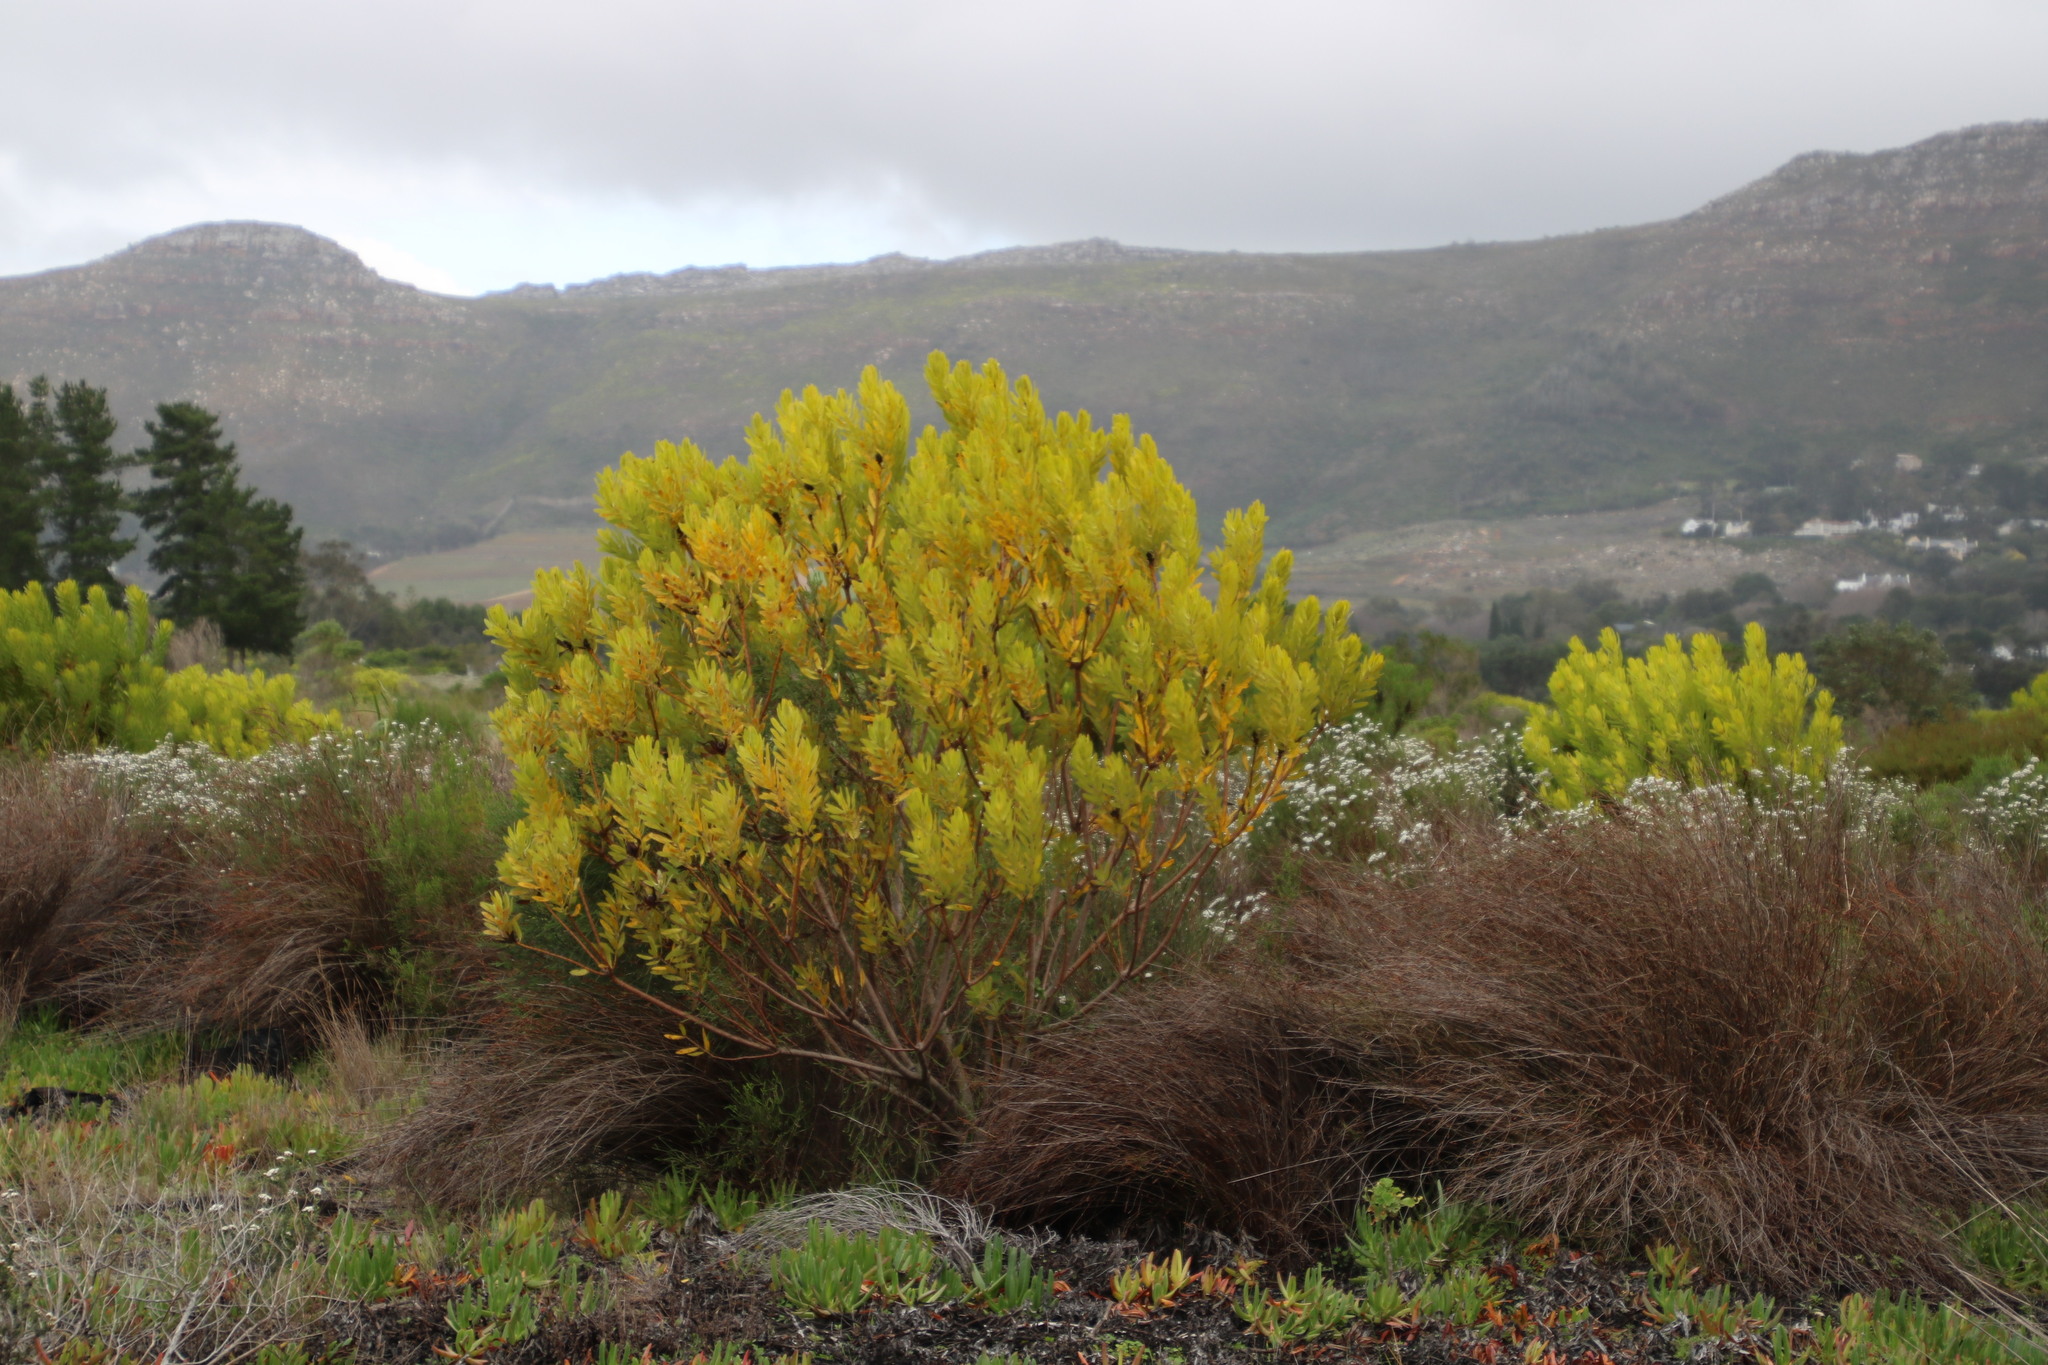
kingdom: Plantae
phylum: Tracheophyta
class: Magnoliopsida
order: Proteales
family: Proteaceae
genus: Leucadendron
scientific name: Leucadendron laureolum
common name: Golden sunshinebush
